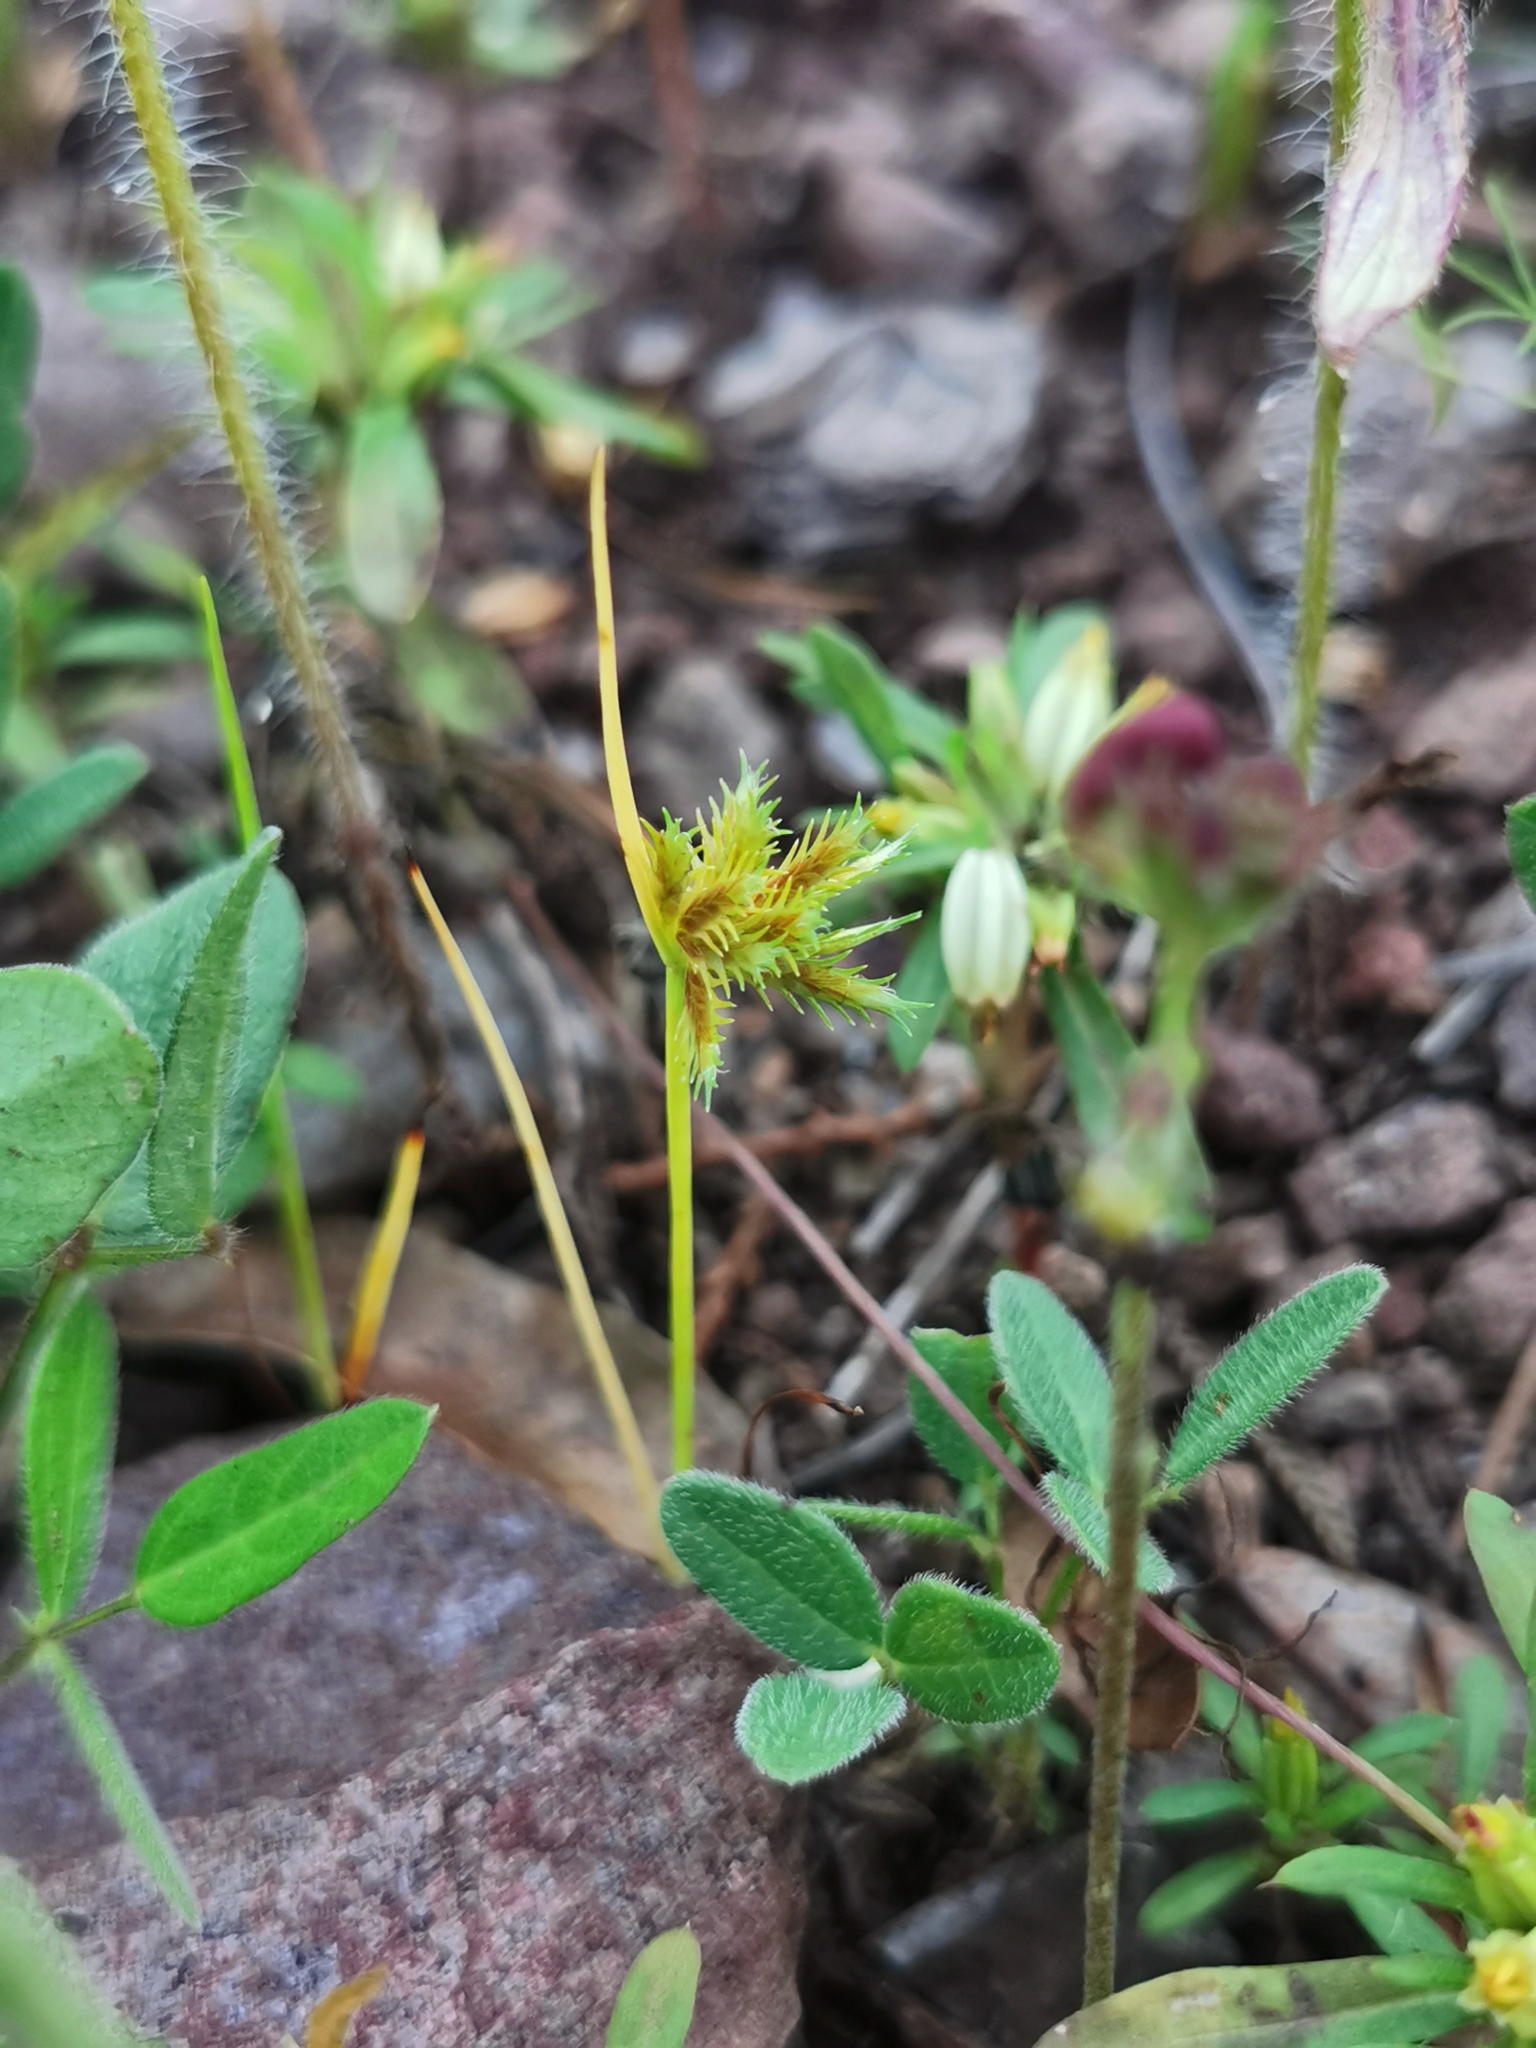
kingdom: Plantae
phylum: Tracheophyta
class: Liliopsida
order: Poales
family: Cyperaceae
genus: Cyperus
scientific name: Cyperus squarrosus
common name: Awned cyperus
